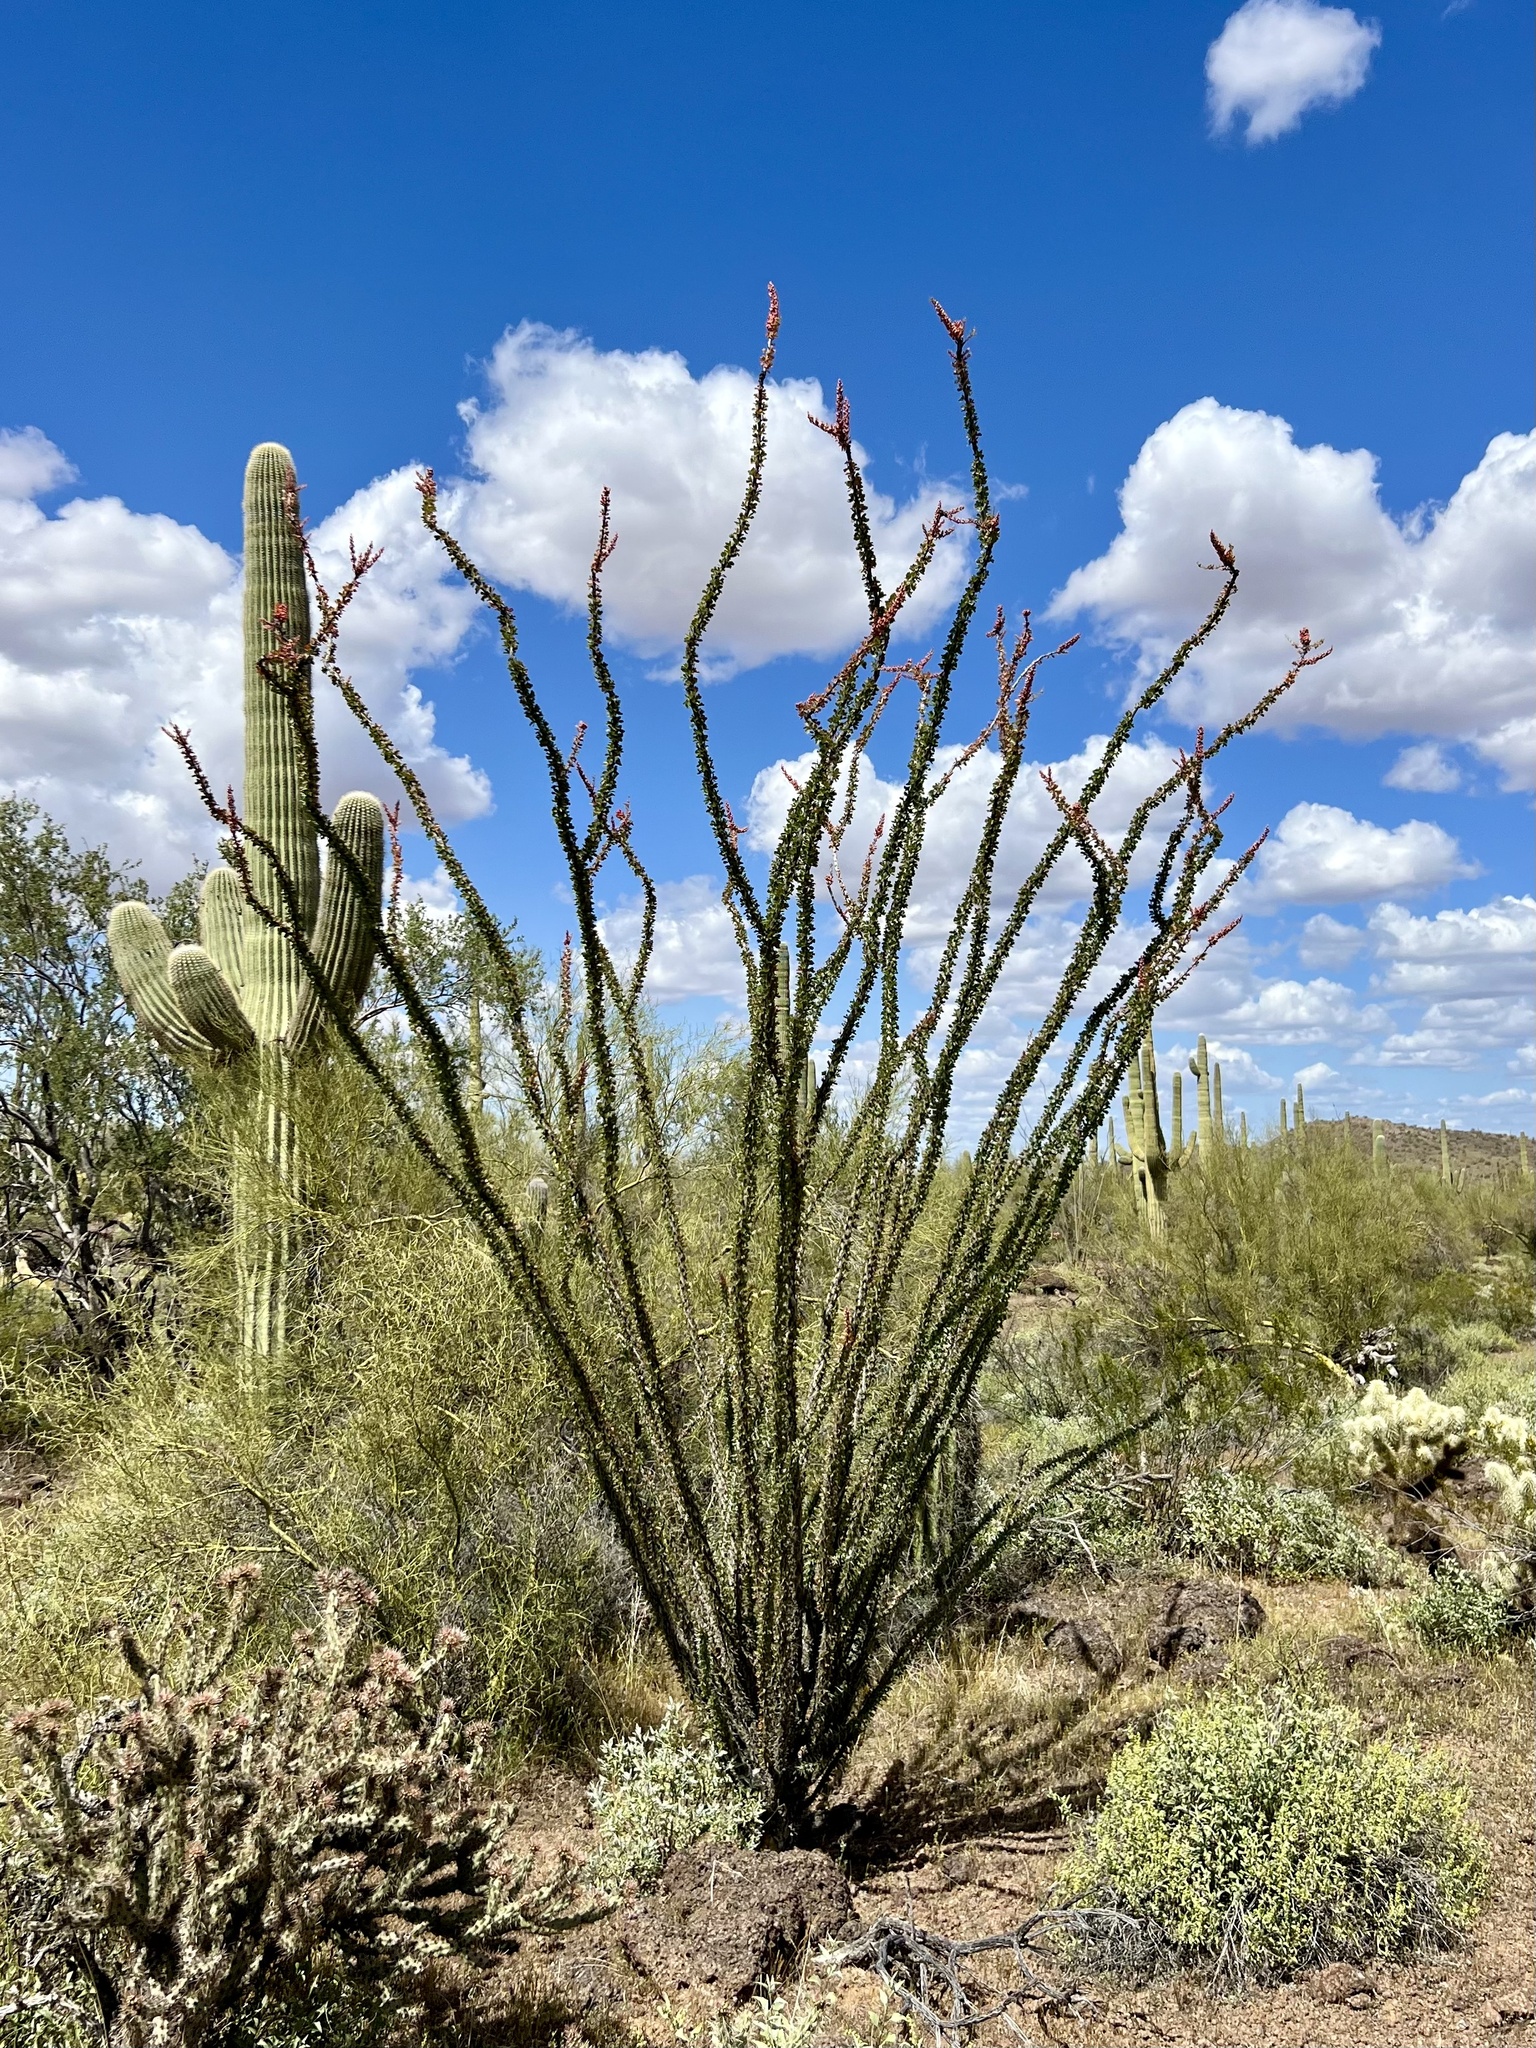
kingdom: Plantae
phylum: Tracheophyta
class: Magnoliopsida
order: Ericales
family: Fouquieriaceae
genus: Fouquieria
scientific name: Fouquieria splendens
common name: Vine-cactus
